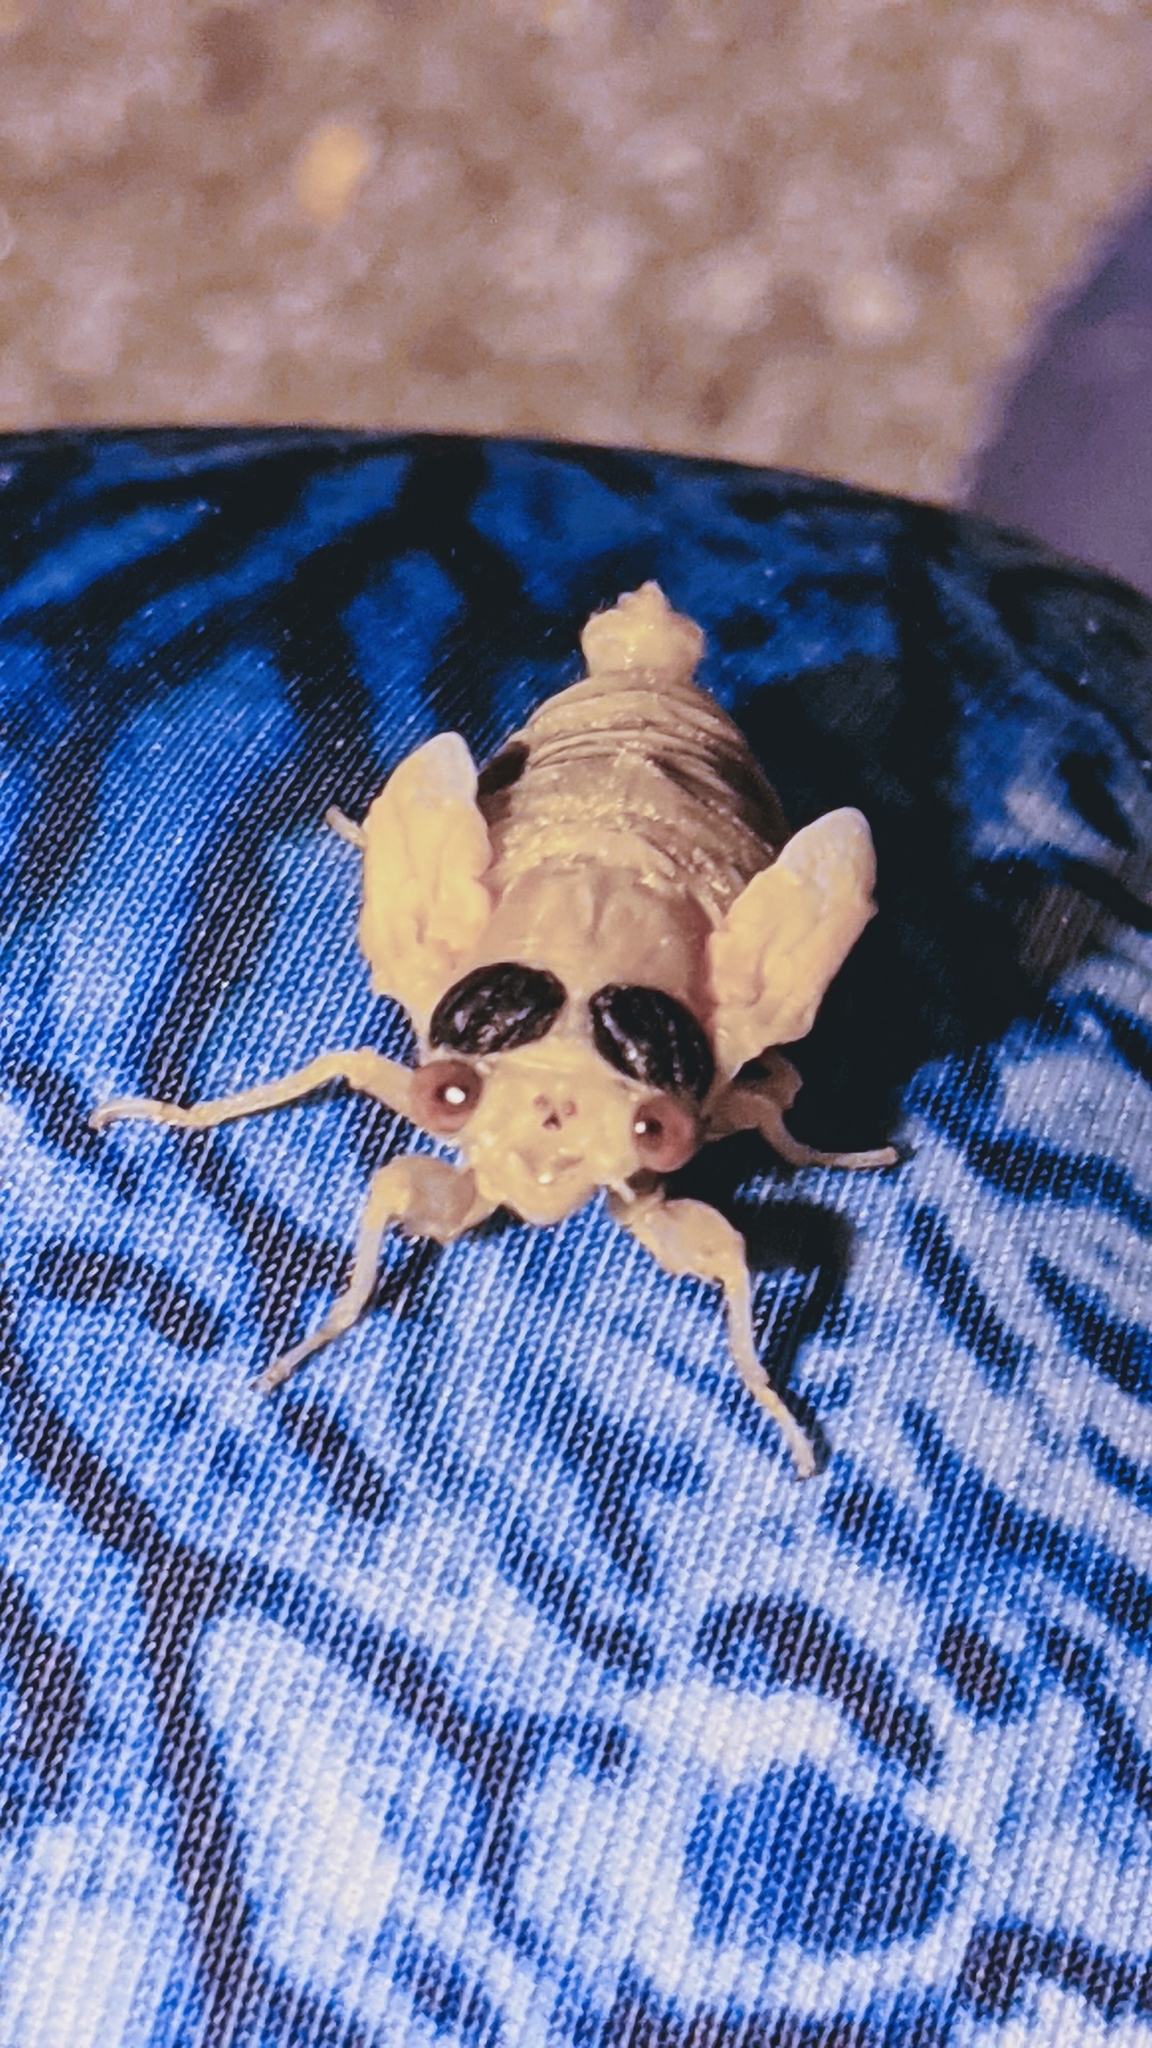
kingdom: Animalia
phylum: Arthropoda
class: Insecta
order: Hemiptera
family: Cicadidae
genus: Magicicada
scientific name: Magicicada
